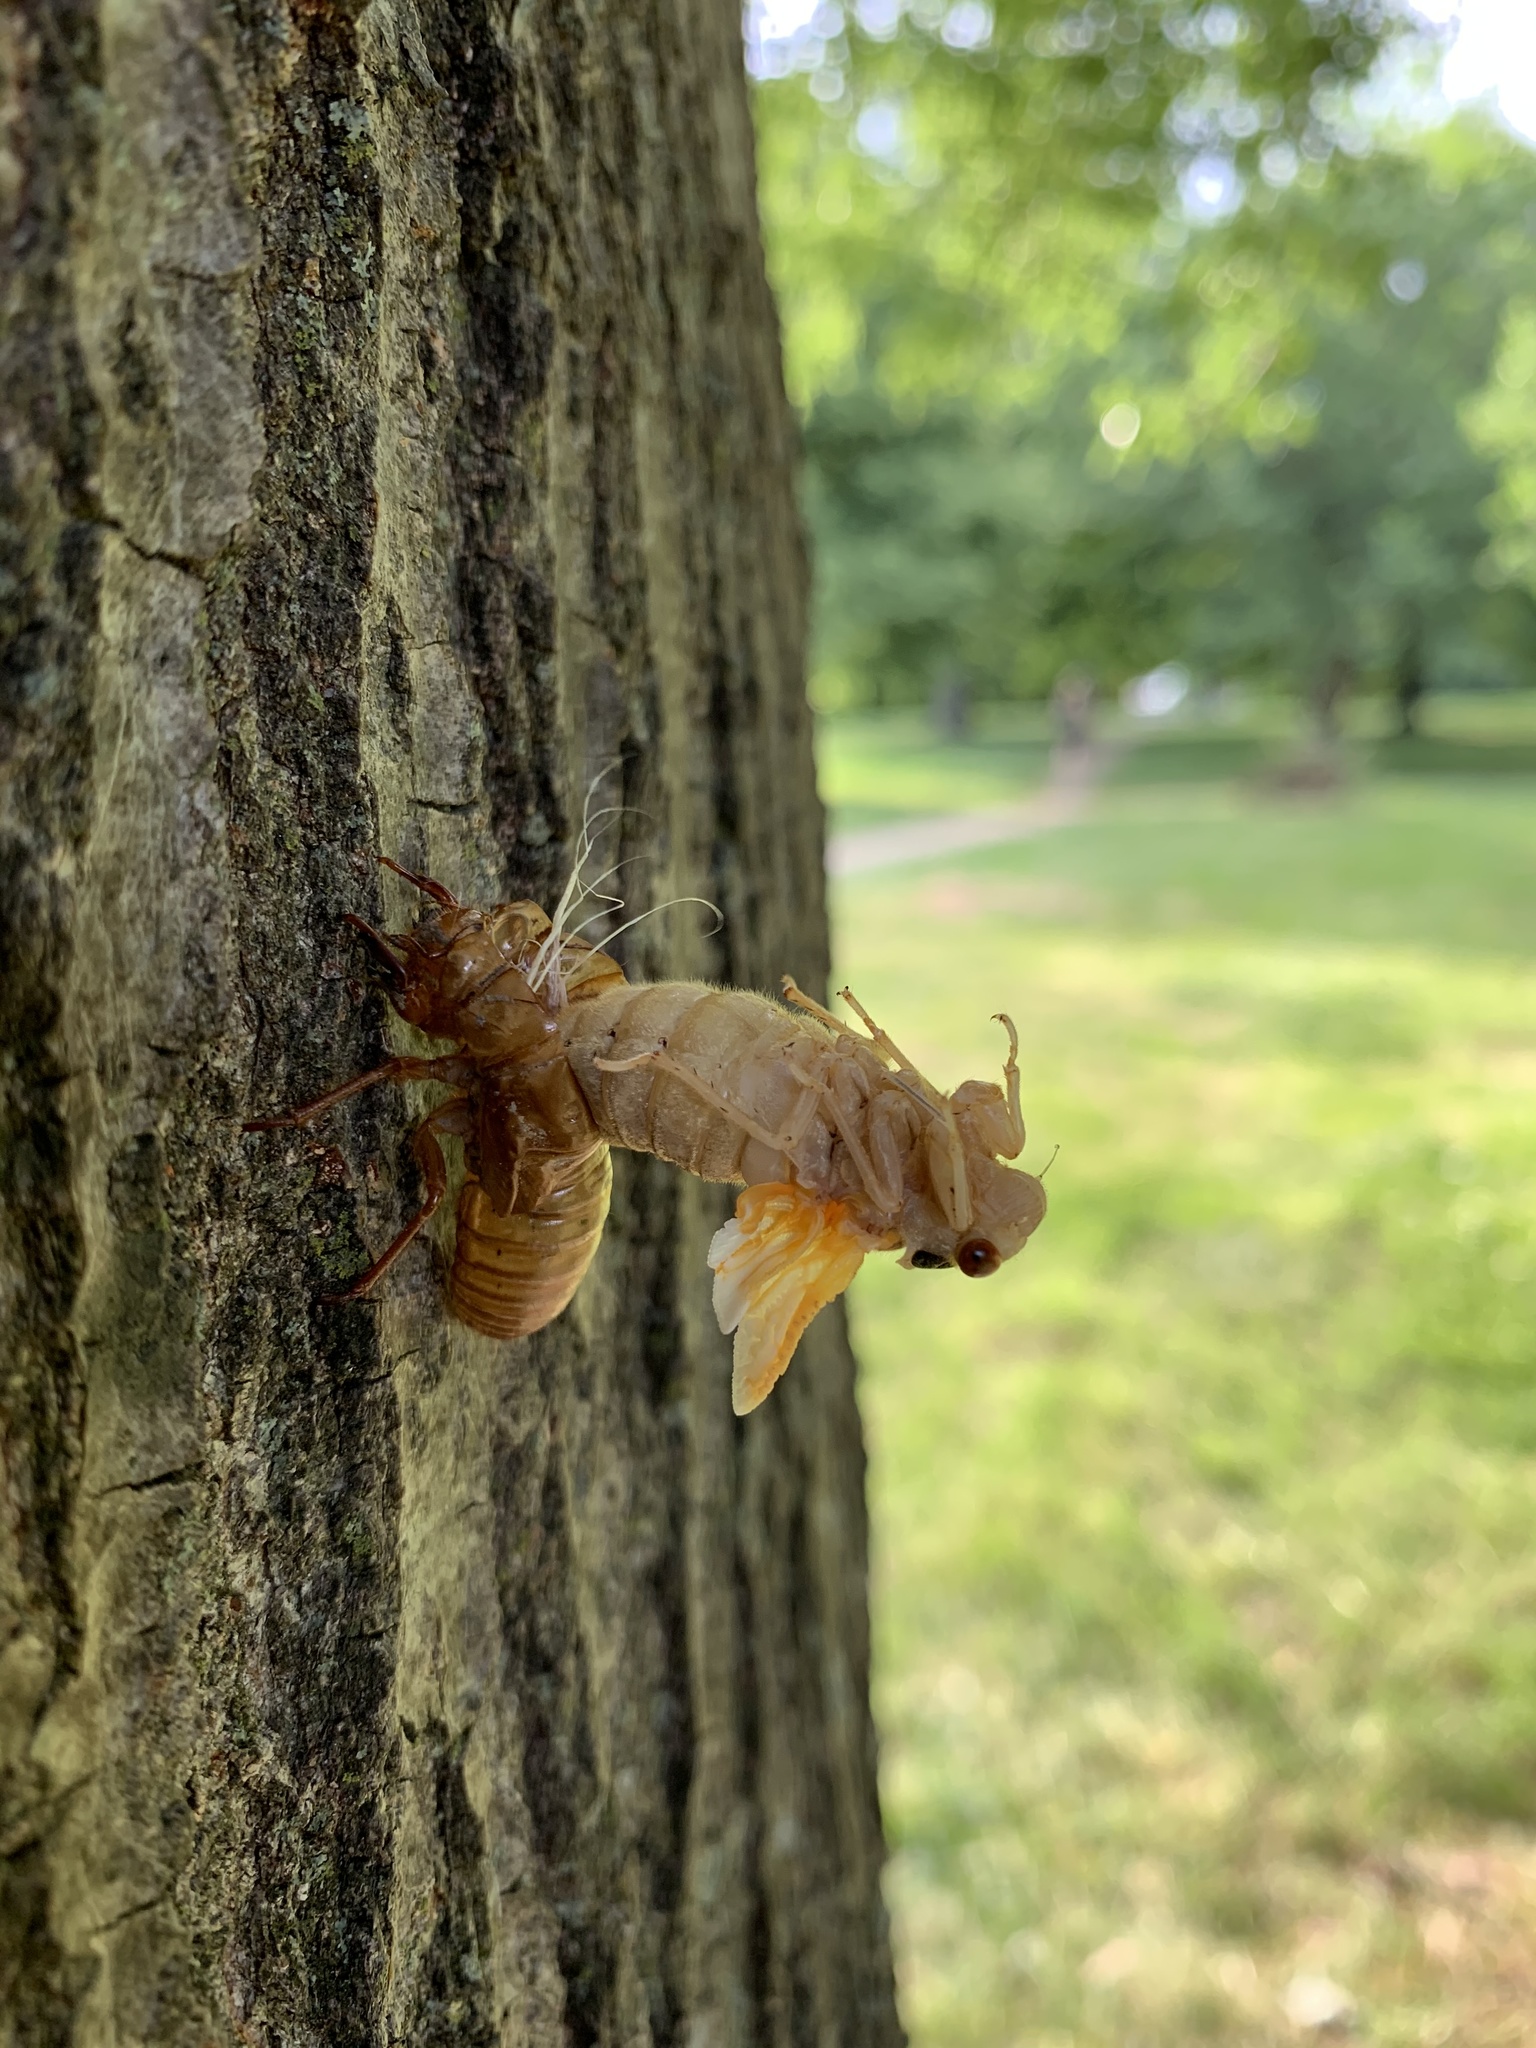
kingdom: Animalia
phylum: Arthropoda
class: Insecta
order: Hemiptera
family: Cicadidae
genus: Magicicada
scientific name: Magicicada
